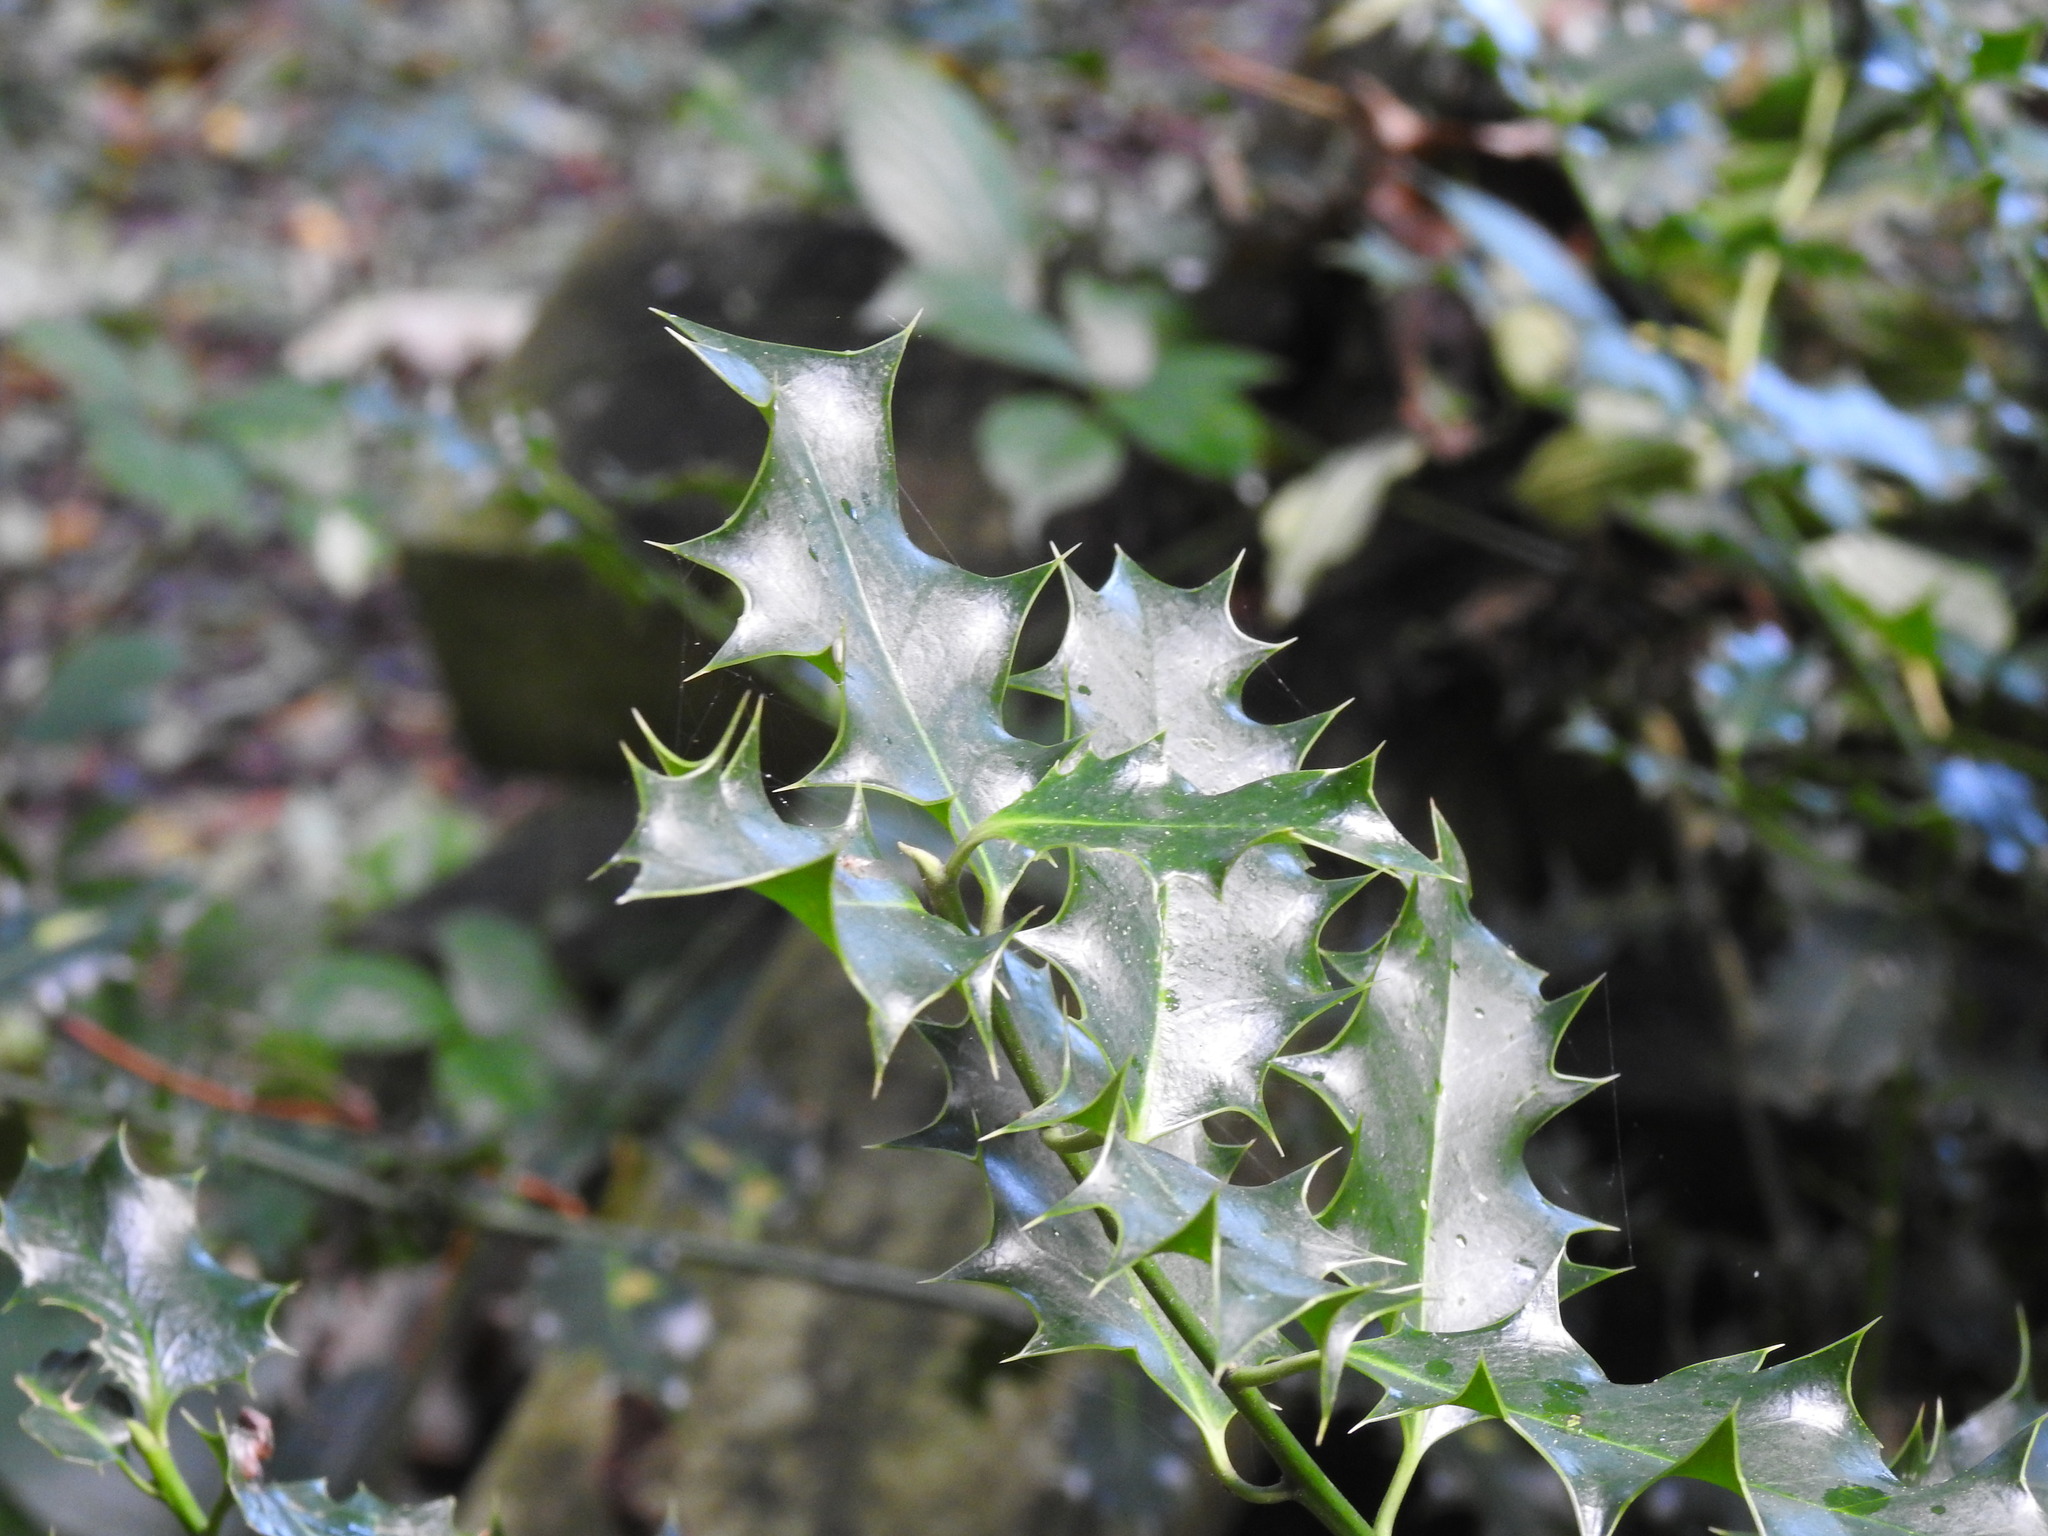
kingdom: Plantae
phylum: Tracheophyta
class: Magnoliopsida
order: Aquifoliales
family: Aquifoliaceae
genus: Ilex
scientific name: Ilex aquifolium
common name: English holly
